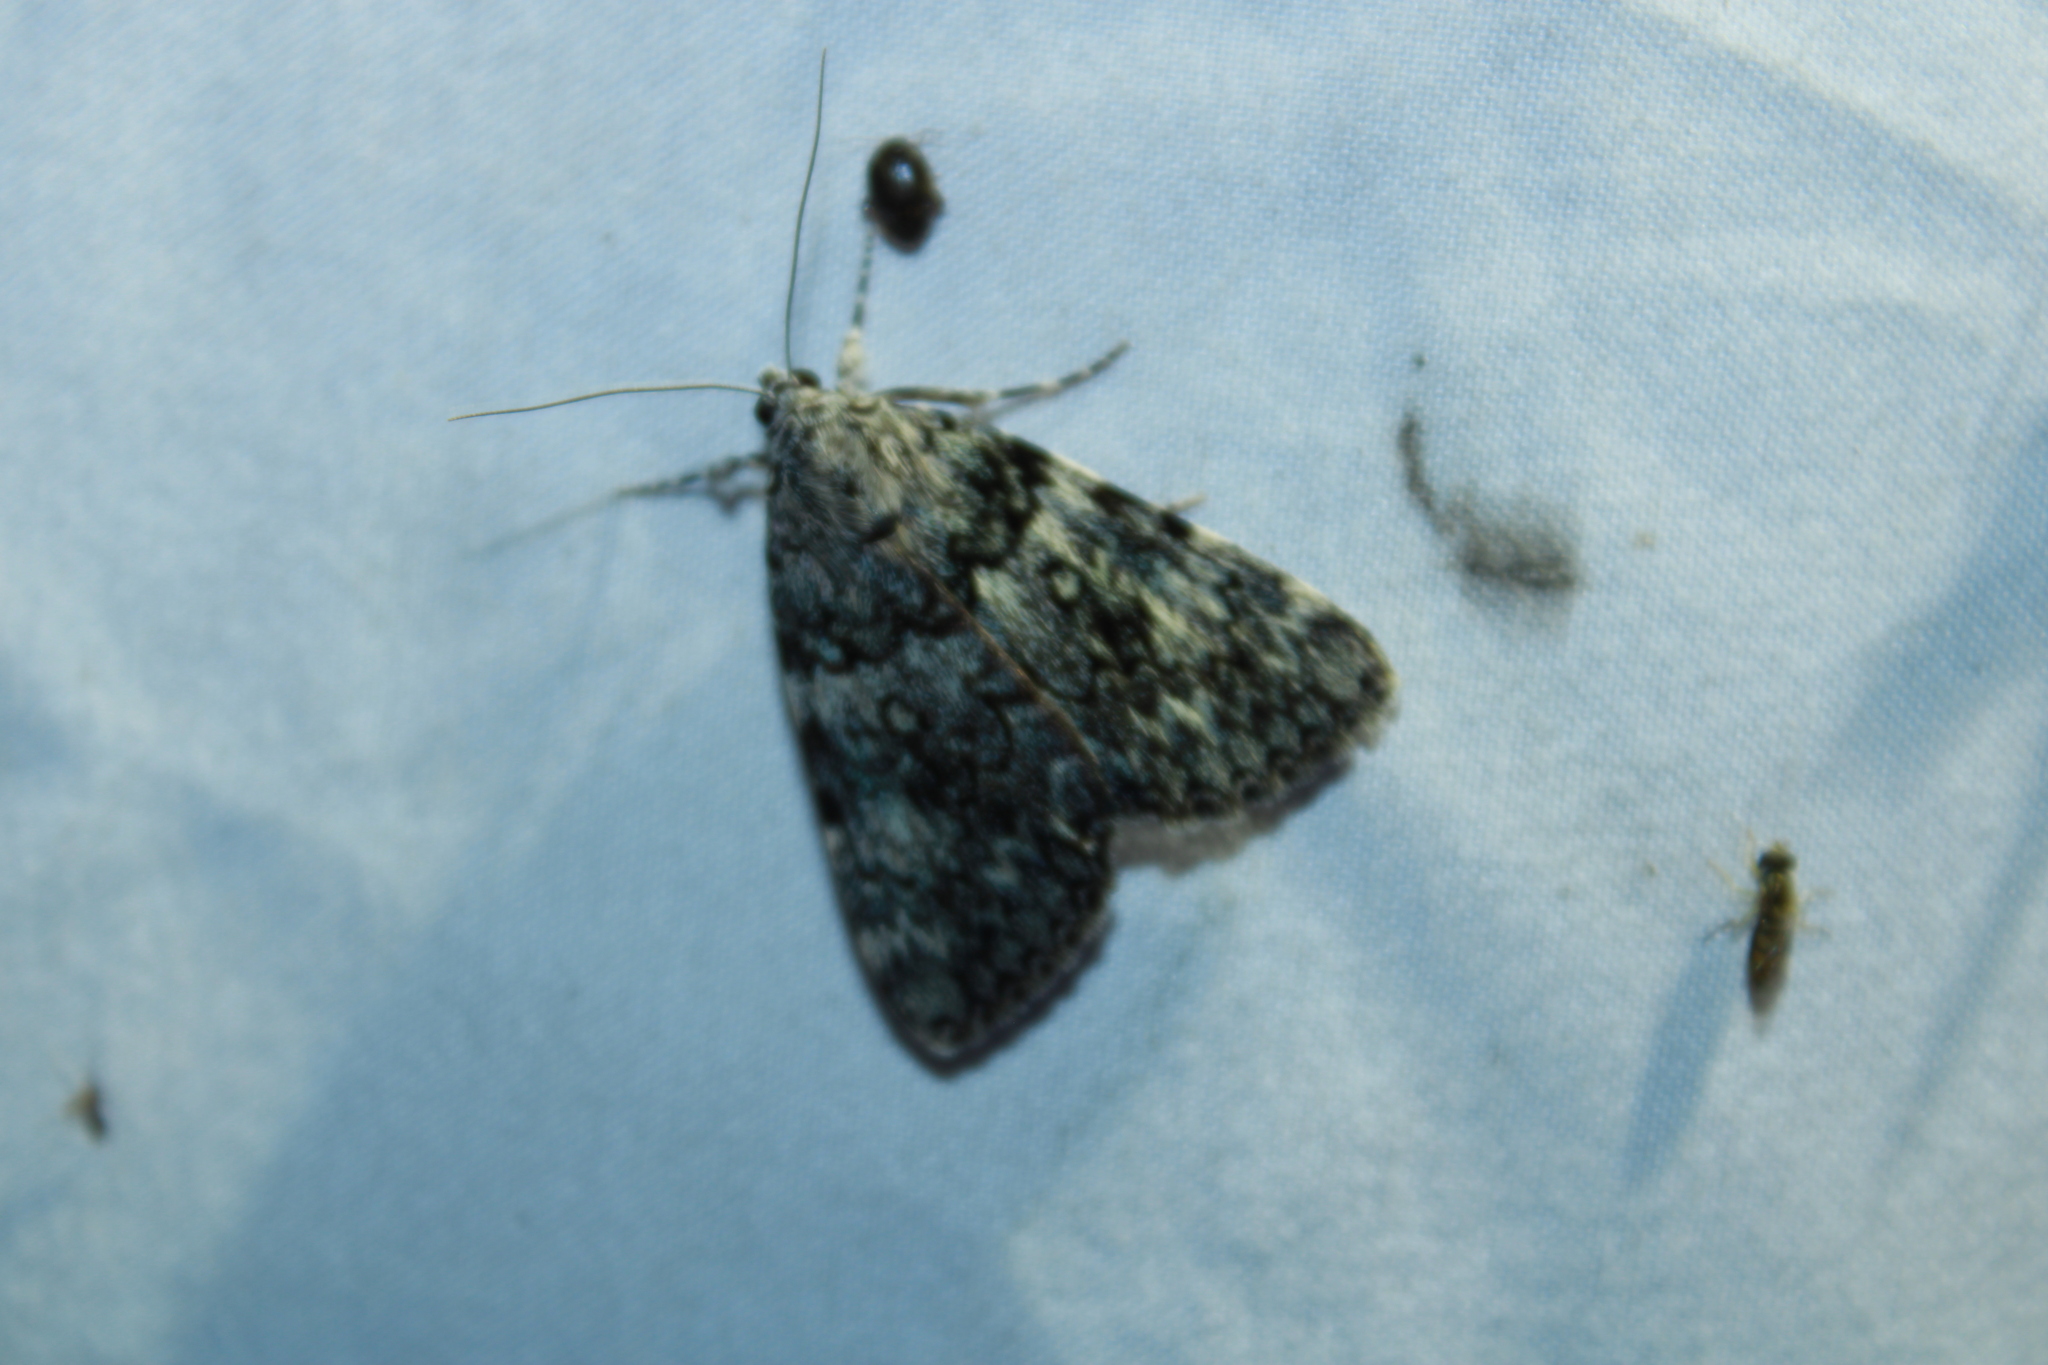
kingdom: Animalia
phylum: Arthropoda
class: Insecta
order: Lepidoptera
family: Erebidae
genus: Catocala
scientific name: Catocala lineella
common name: Little lined underwing
